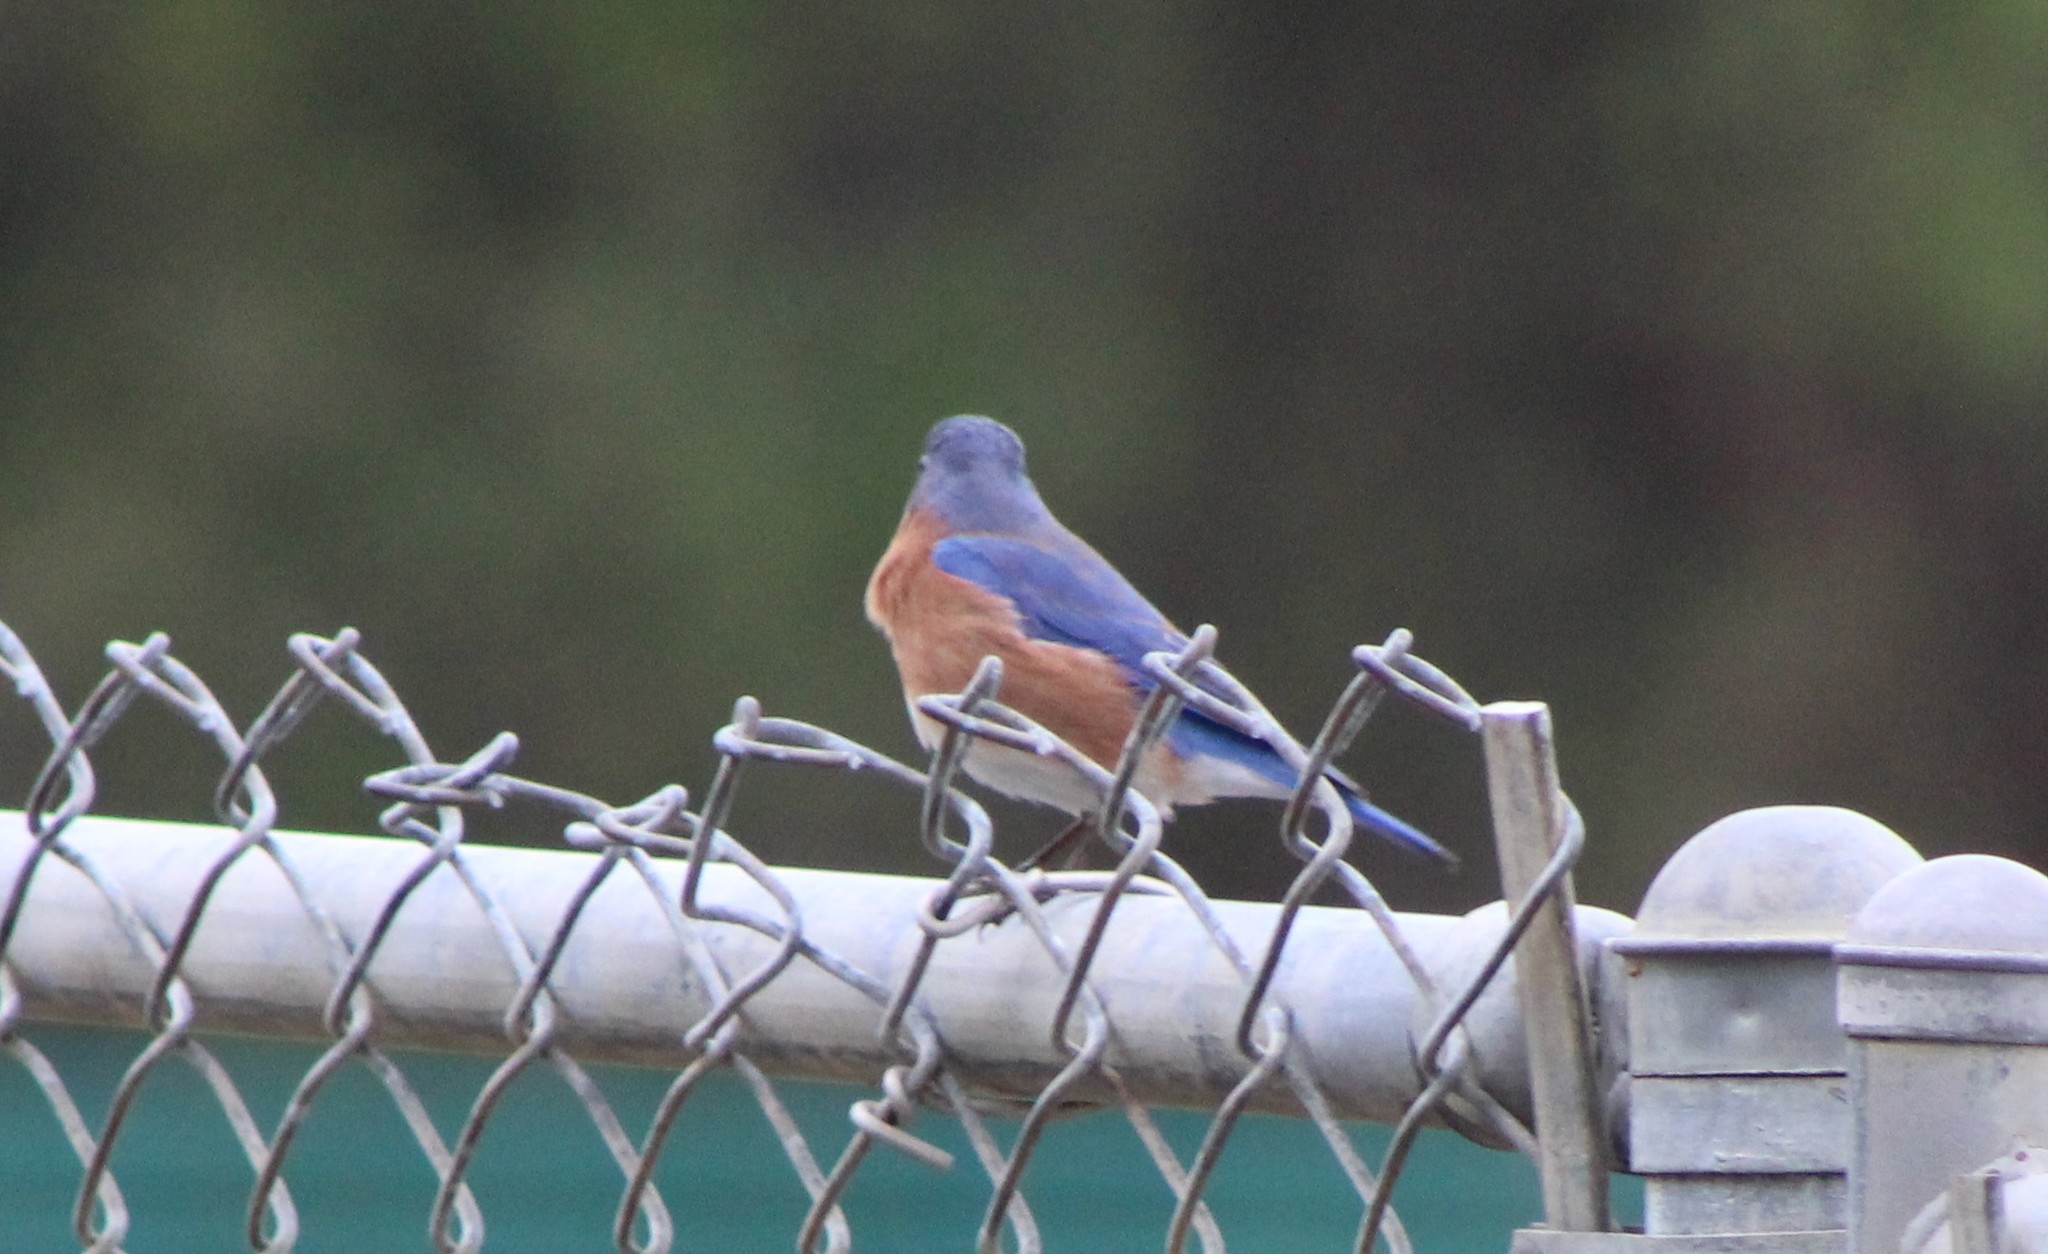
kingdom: Animalia
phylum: Chordata
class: Aves
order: Passeriformes
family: Turdidae
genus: Sialia
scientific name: Sialia sialis
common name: Eastern bluebird
